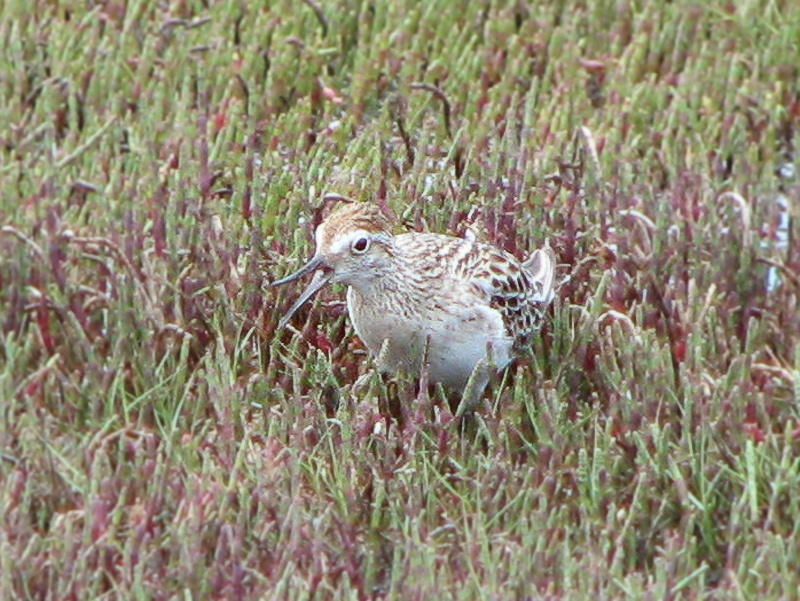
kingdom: Animalia
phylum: Chordata
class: Aves
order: Charadriiformes
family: Scolopacidae
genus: Calidris
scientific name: Calidris acuminata
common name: Sharp-tailed sandpiper
